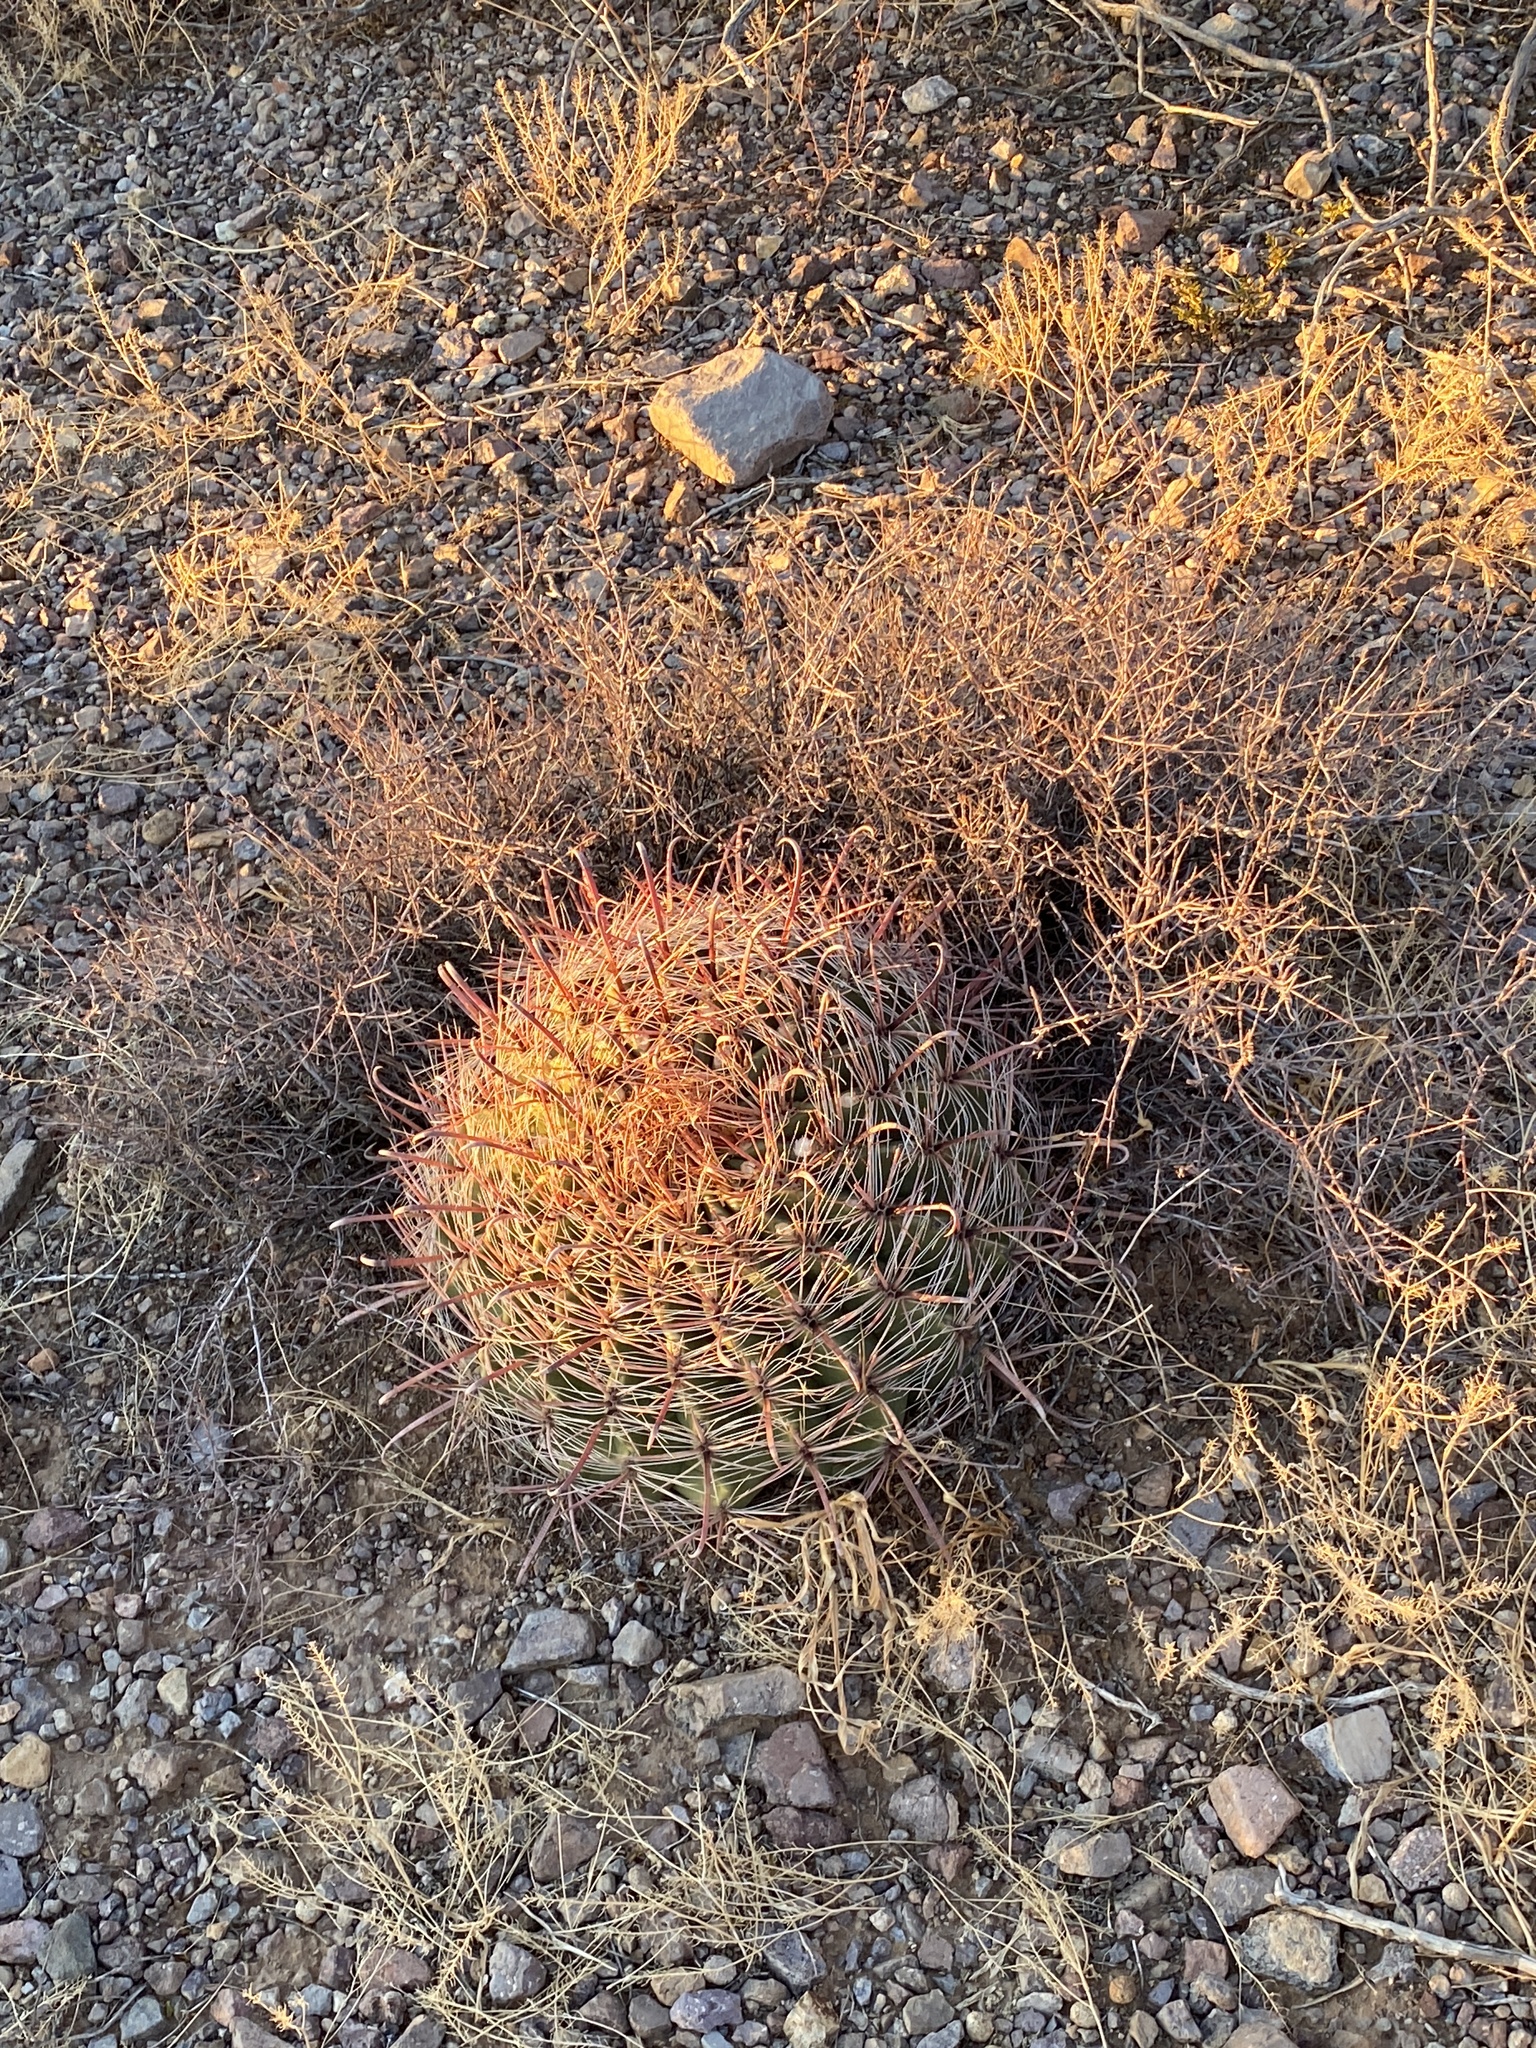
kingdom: Plantae
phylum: Tracheophyta
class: Magnoliopsida
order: Caryophyllales
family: Cactaceae
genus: Ferocactus
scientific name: Ferocactus wislizeni
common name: Candy barrel cactus
